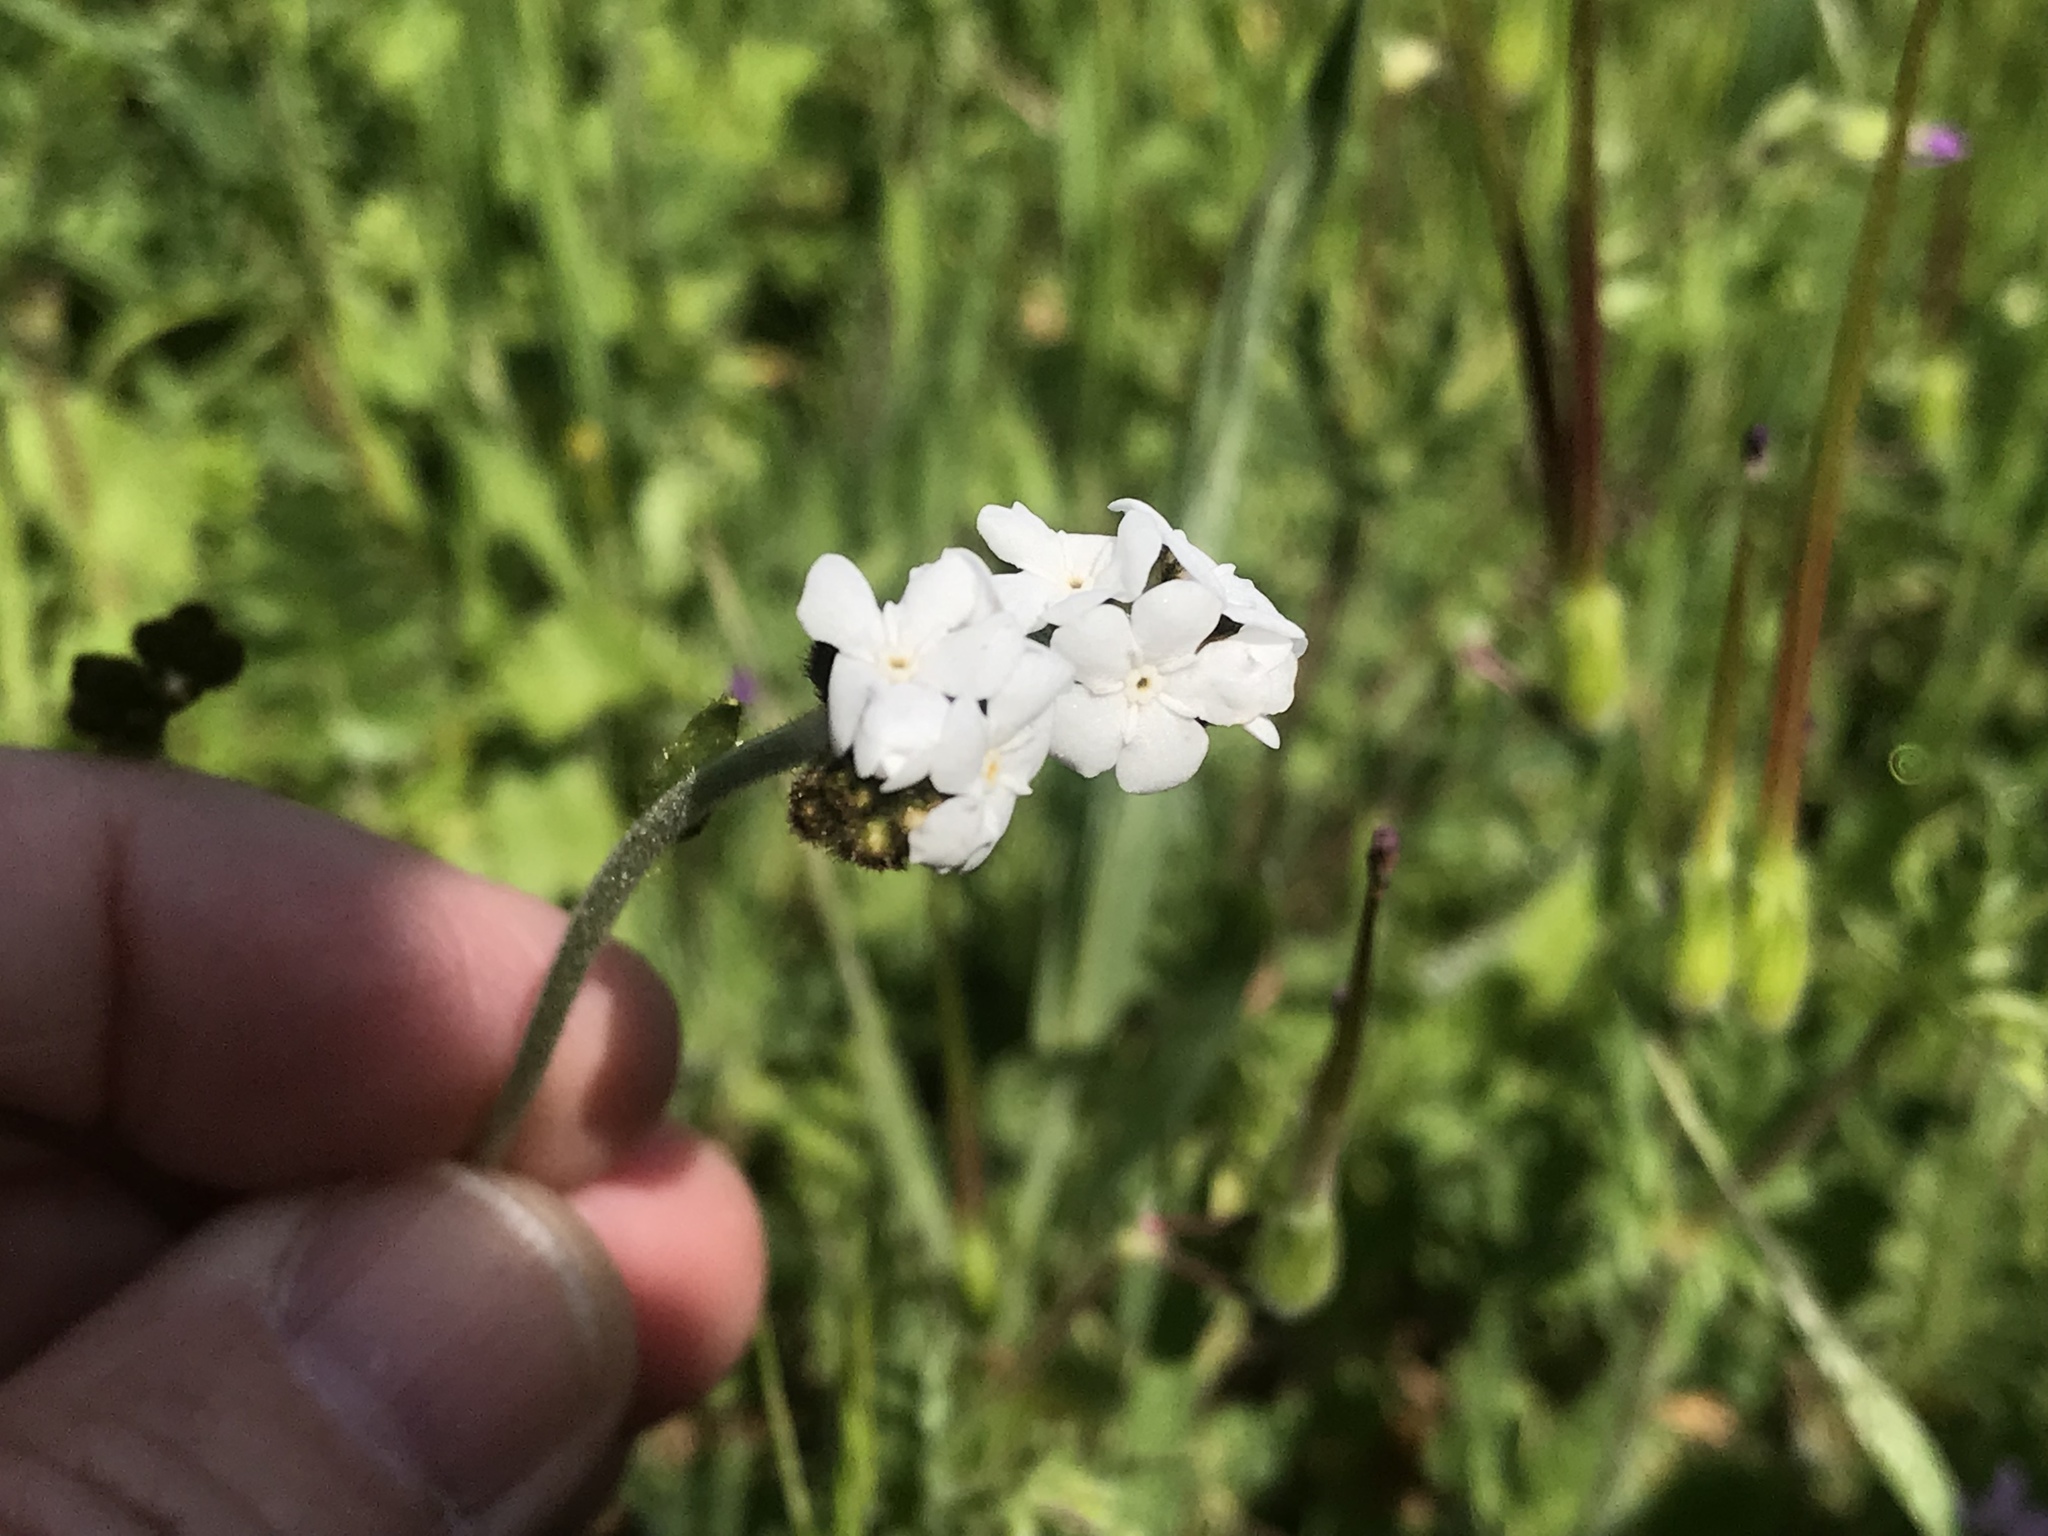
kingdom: Plantae
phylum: Tracheophyta
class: Magnoliopsida
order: Boraginales
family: Boraginaceae
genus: Plagiobothrys
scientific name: Plagiobothrys nothofulvus
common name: Popcorn-flower
